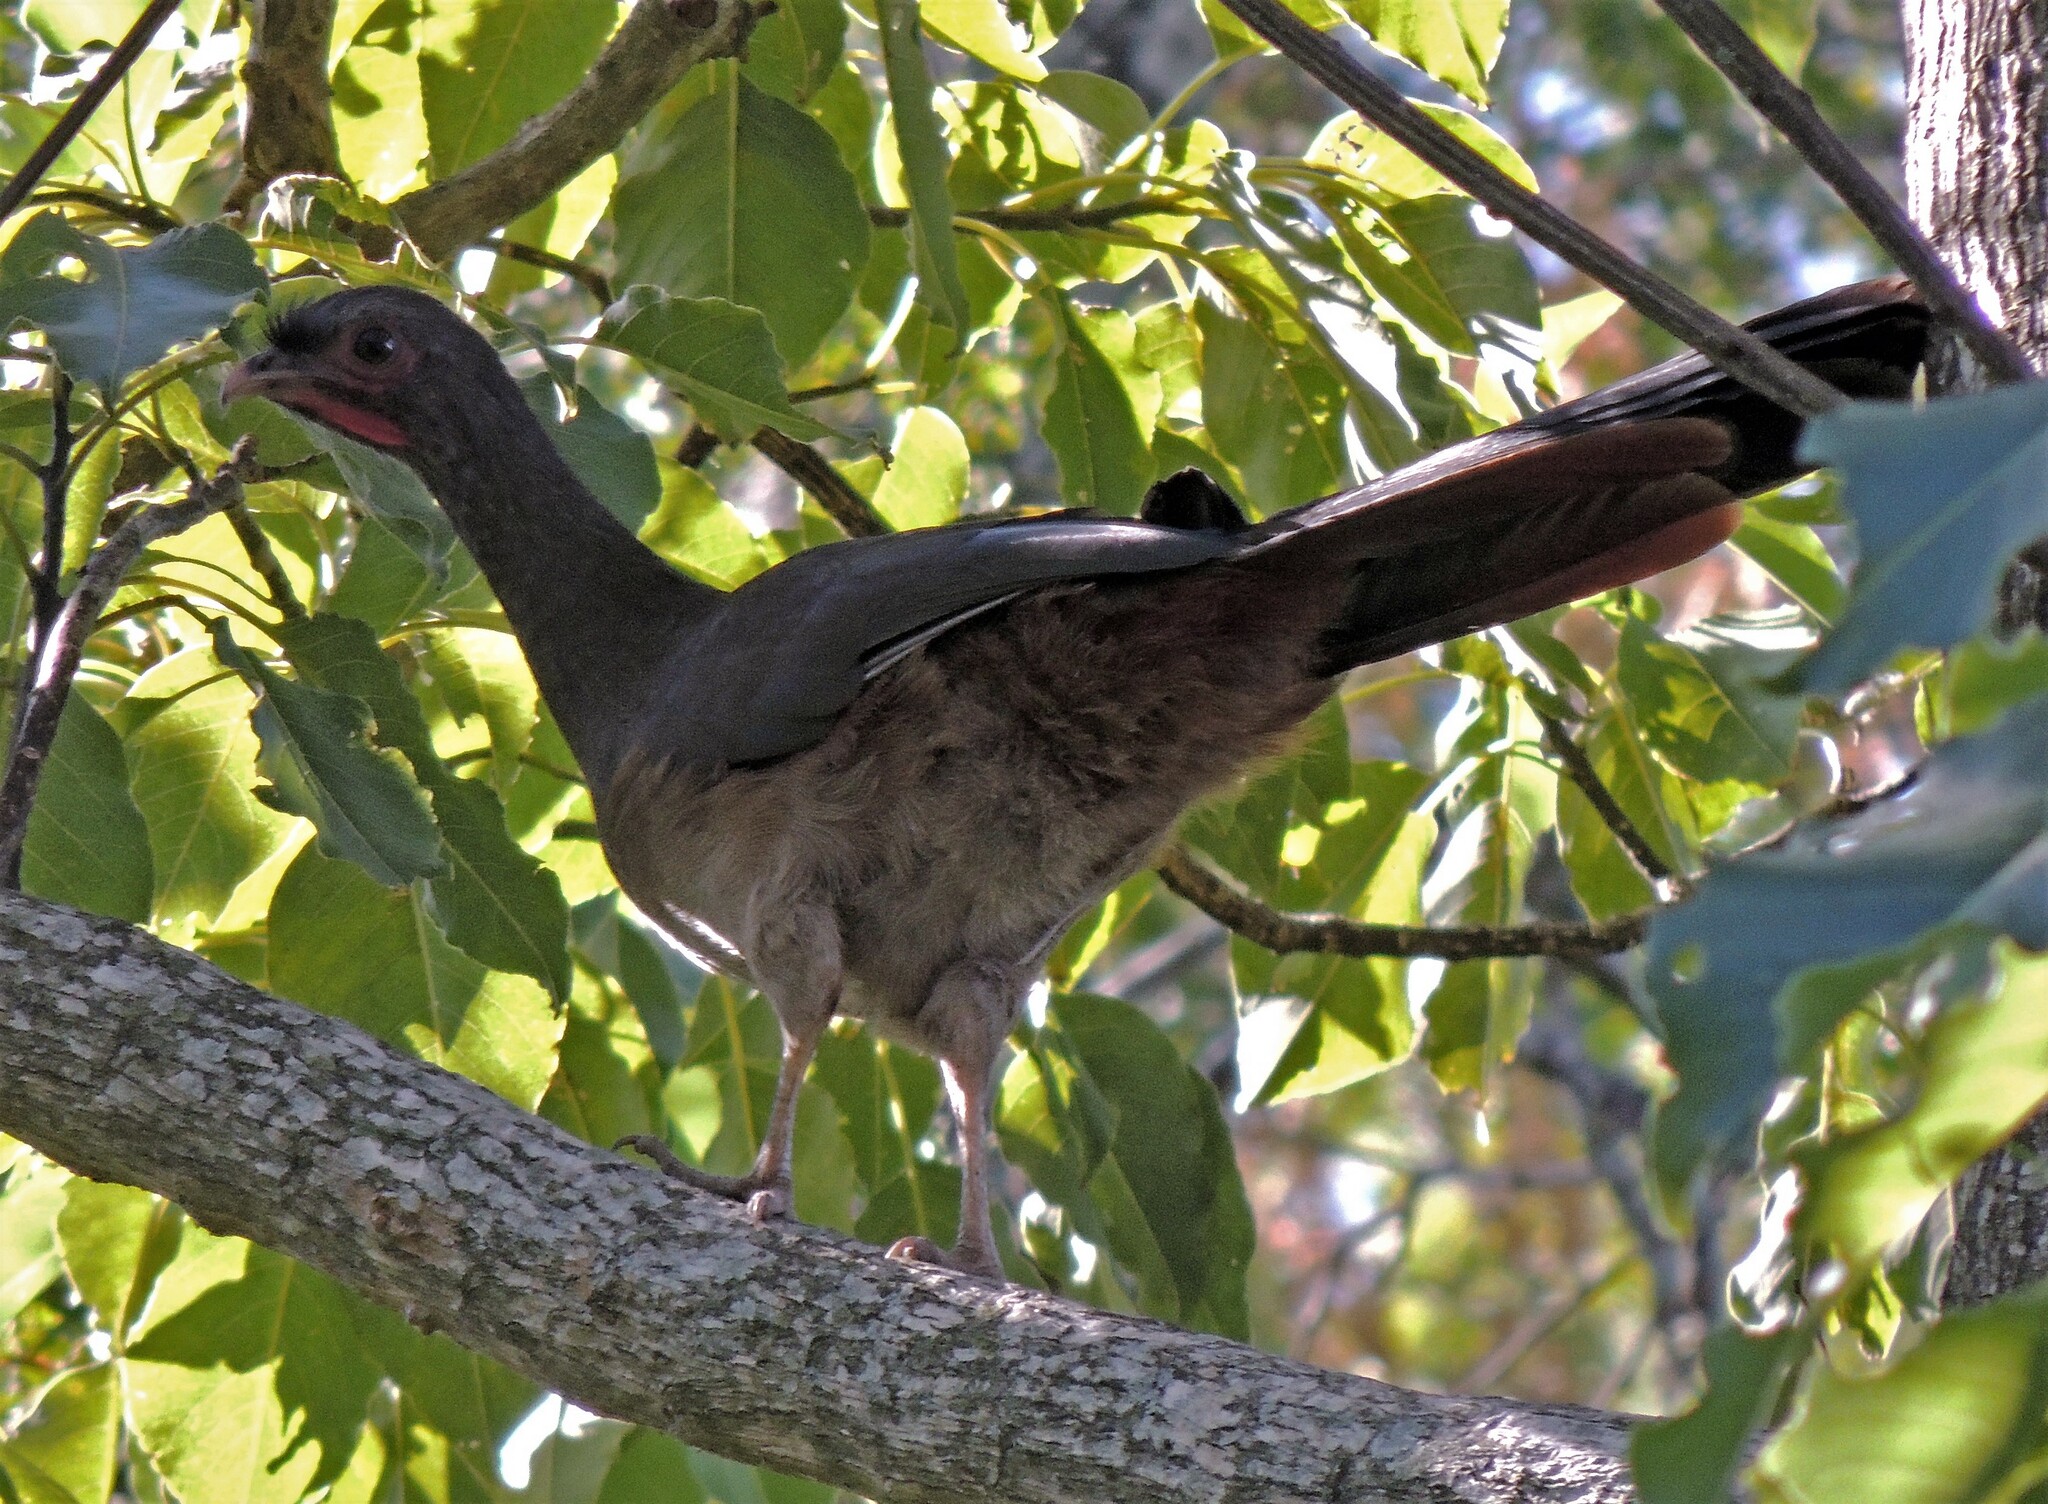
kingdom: Animalia
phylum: Chordata
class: Aves
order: Galliformes
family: Cracidae
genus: Ortalis
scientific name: Ortalis canicollis
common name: Chaco chachalaca
